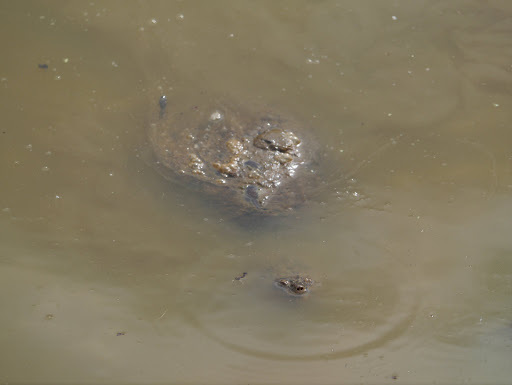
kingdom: Animalia
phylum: Chordata
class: Testudines
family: Chelydridae
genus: Chelydra
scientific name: Chelydra serpentina
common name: Common snapping turtle
